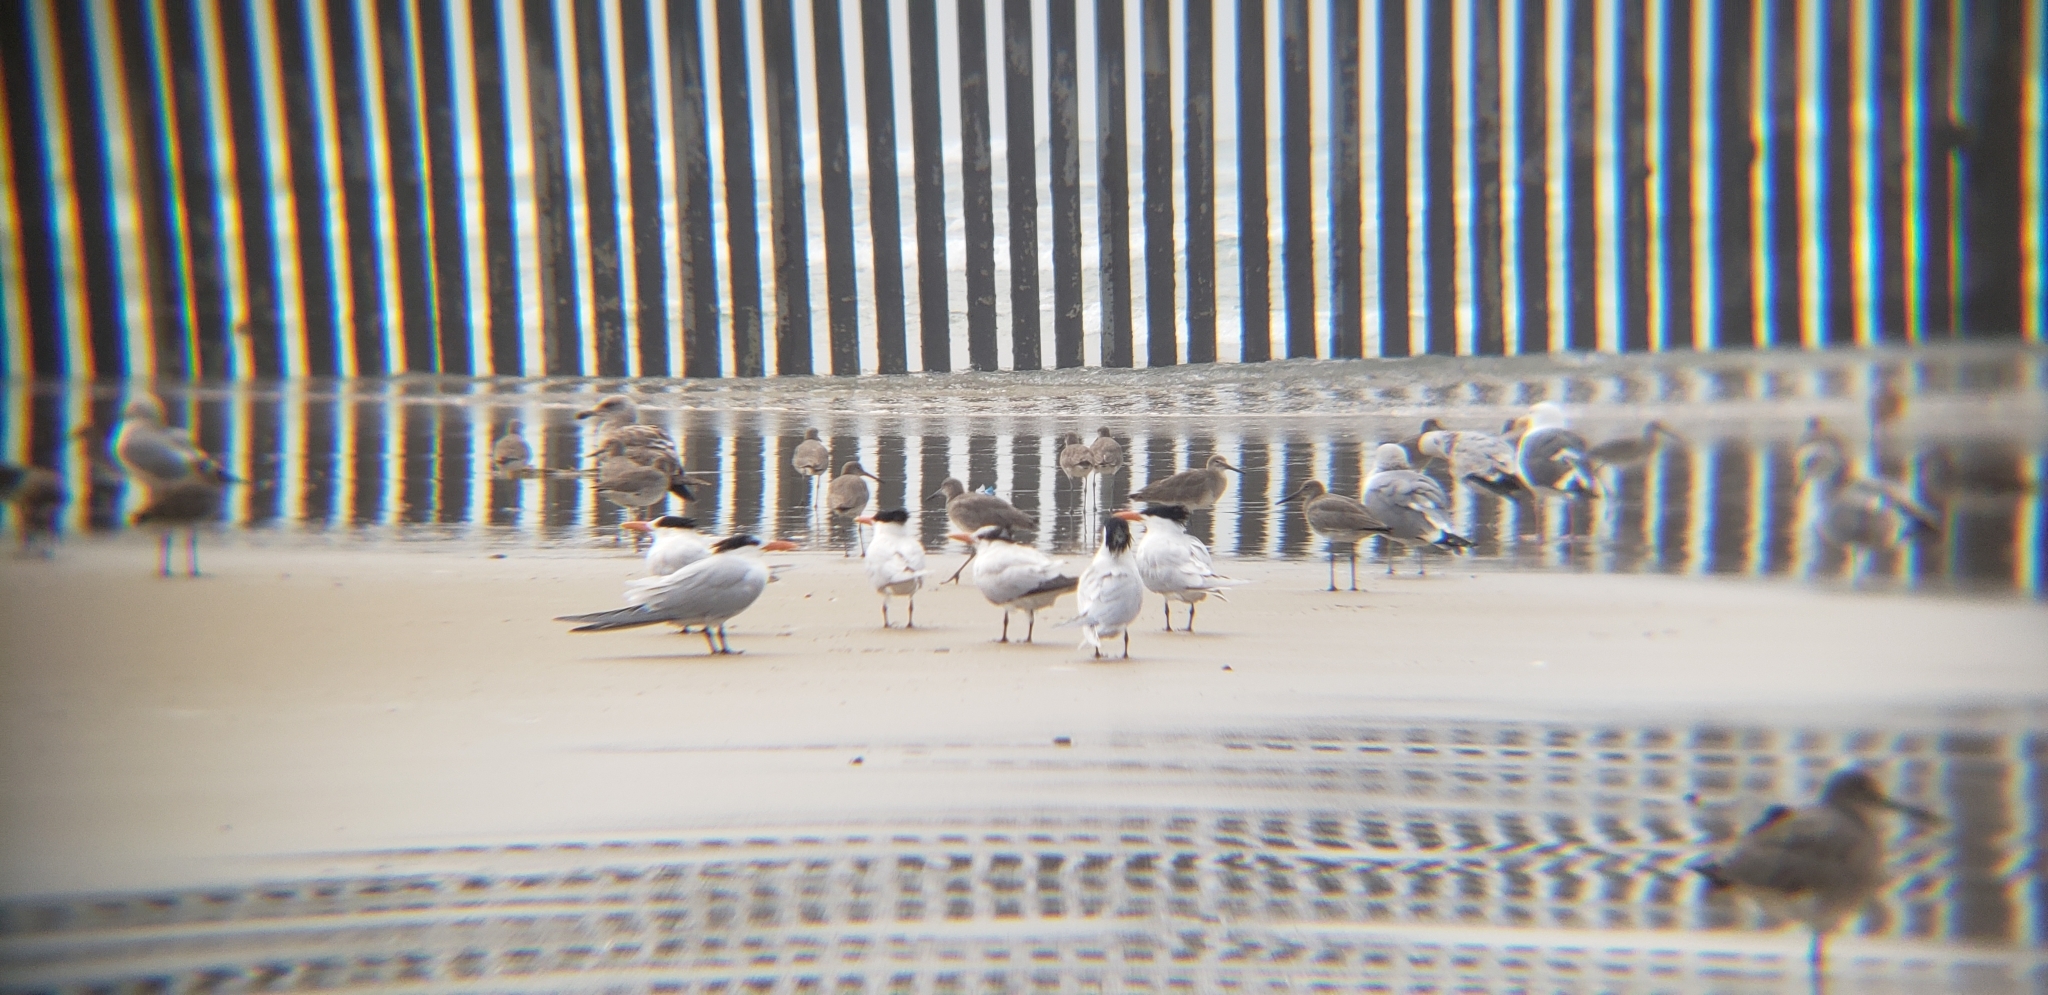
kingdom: Animalia
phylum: Chordata
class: Aves
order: Charadriiformes
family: Laridae
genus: Thalasseus
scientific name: Thalasseus maximus
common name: Royal tern
